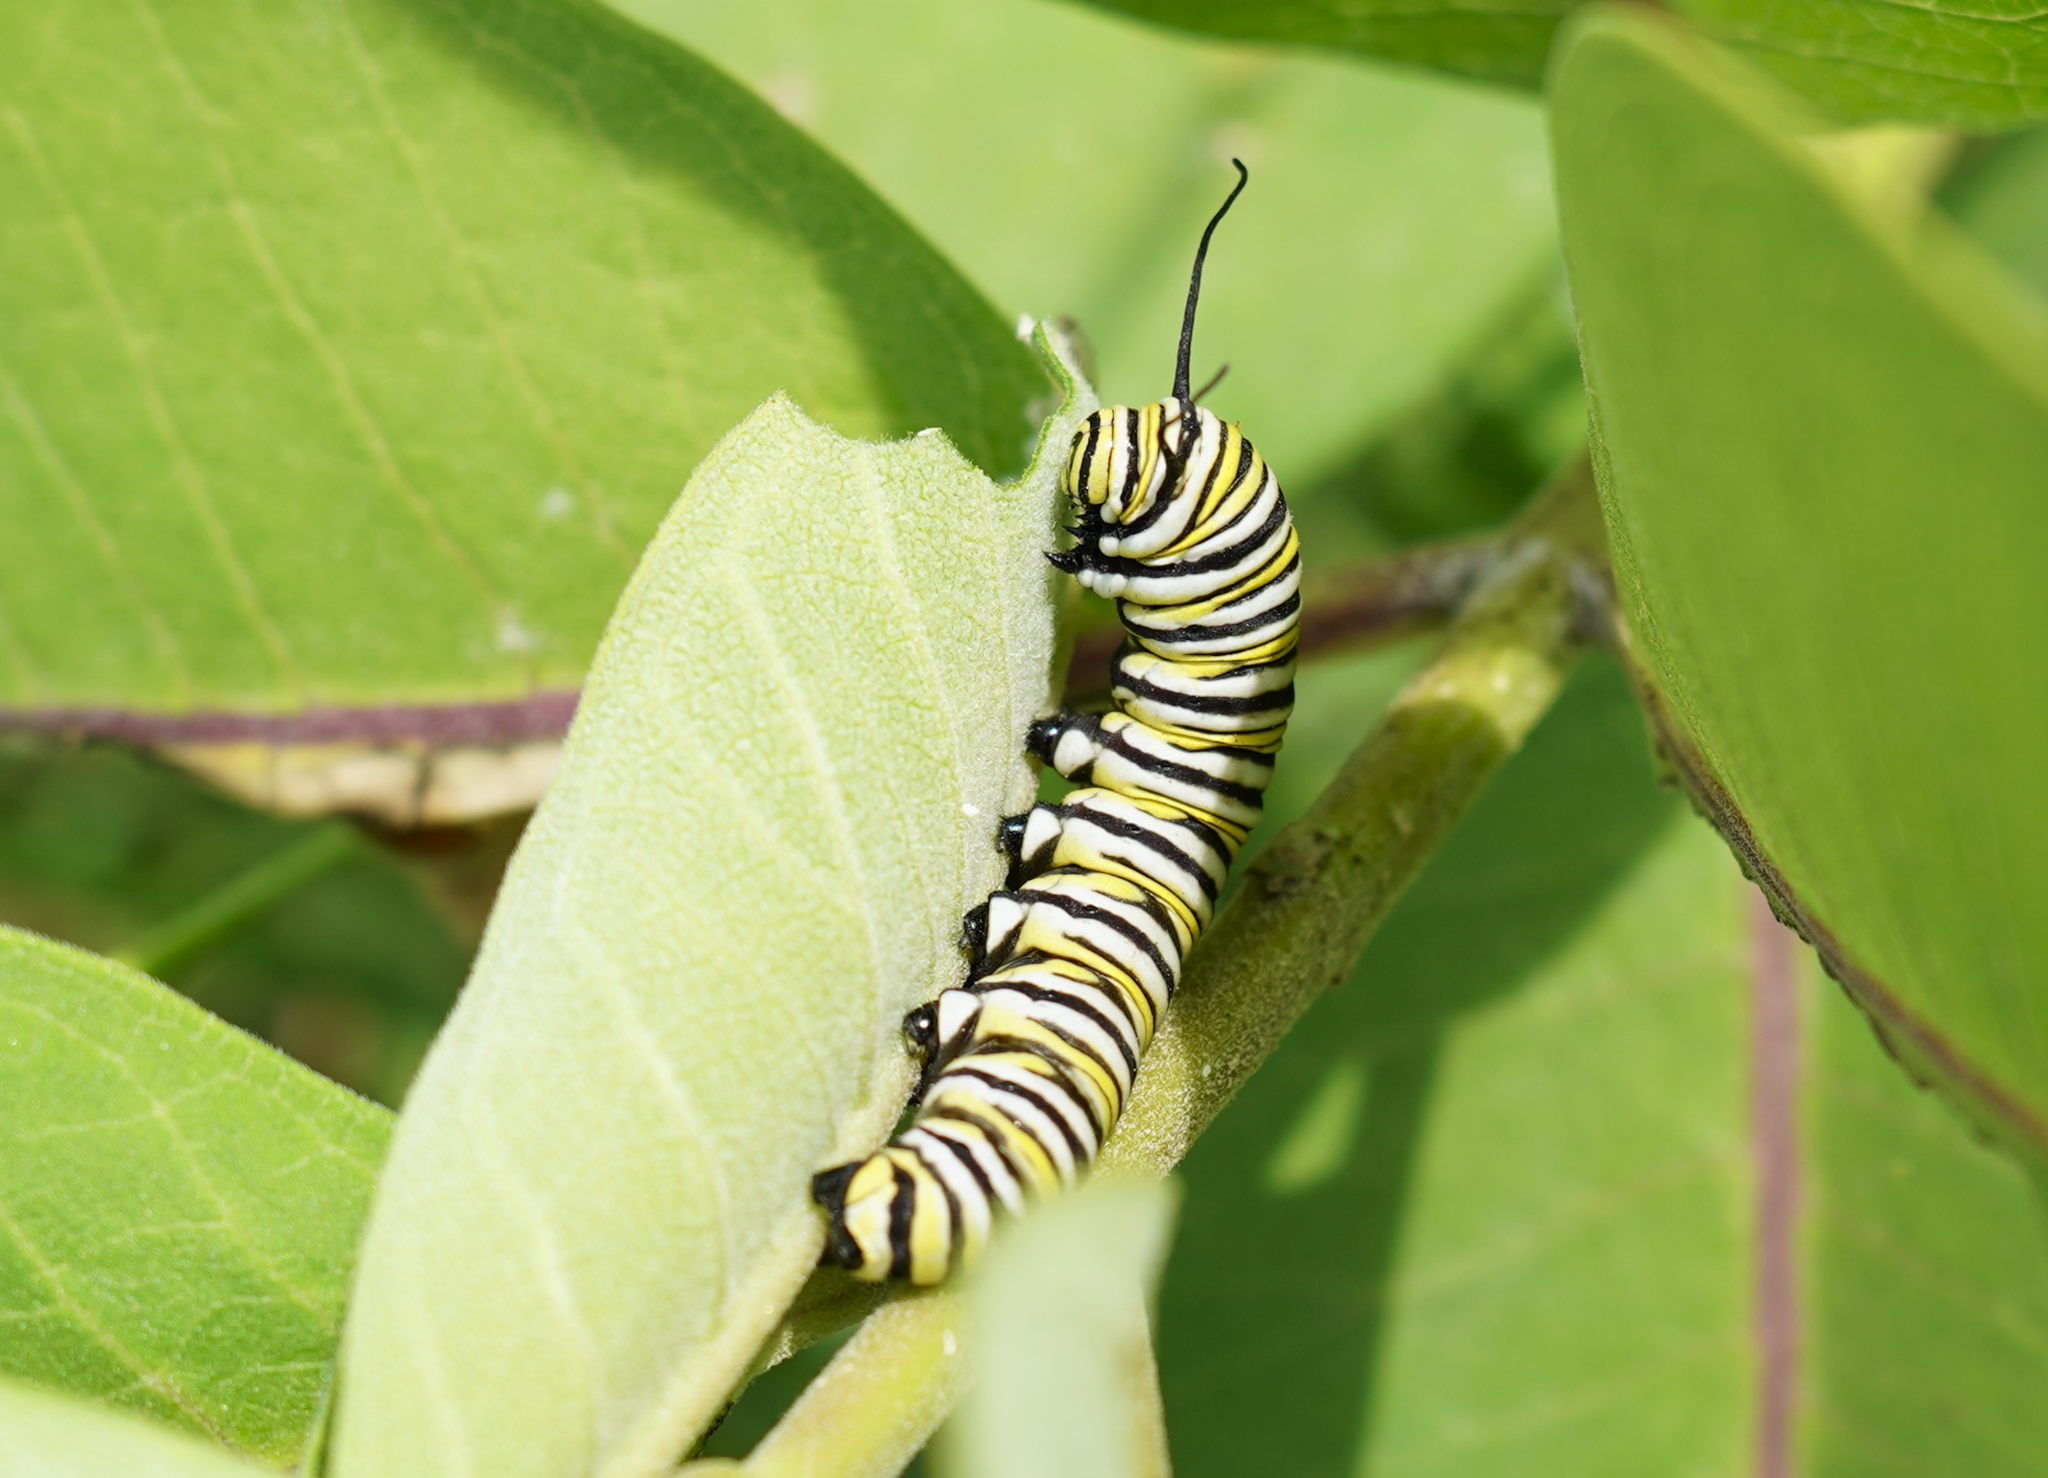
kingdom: Animalia
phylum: Arthropoda
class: Insecta
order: Lepidoptera
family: Nymphalidae
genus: Danaus
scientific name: Danaus plexippus
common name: Monarch
